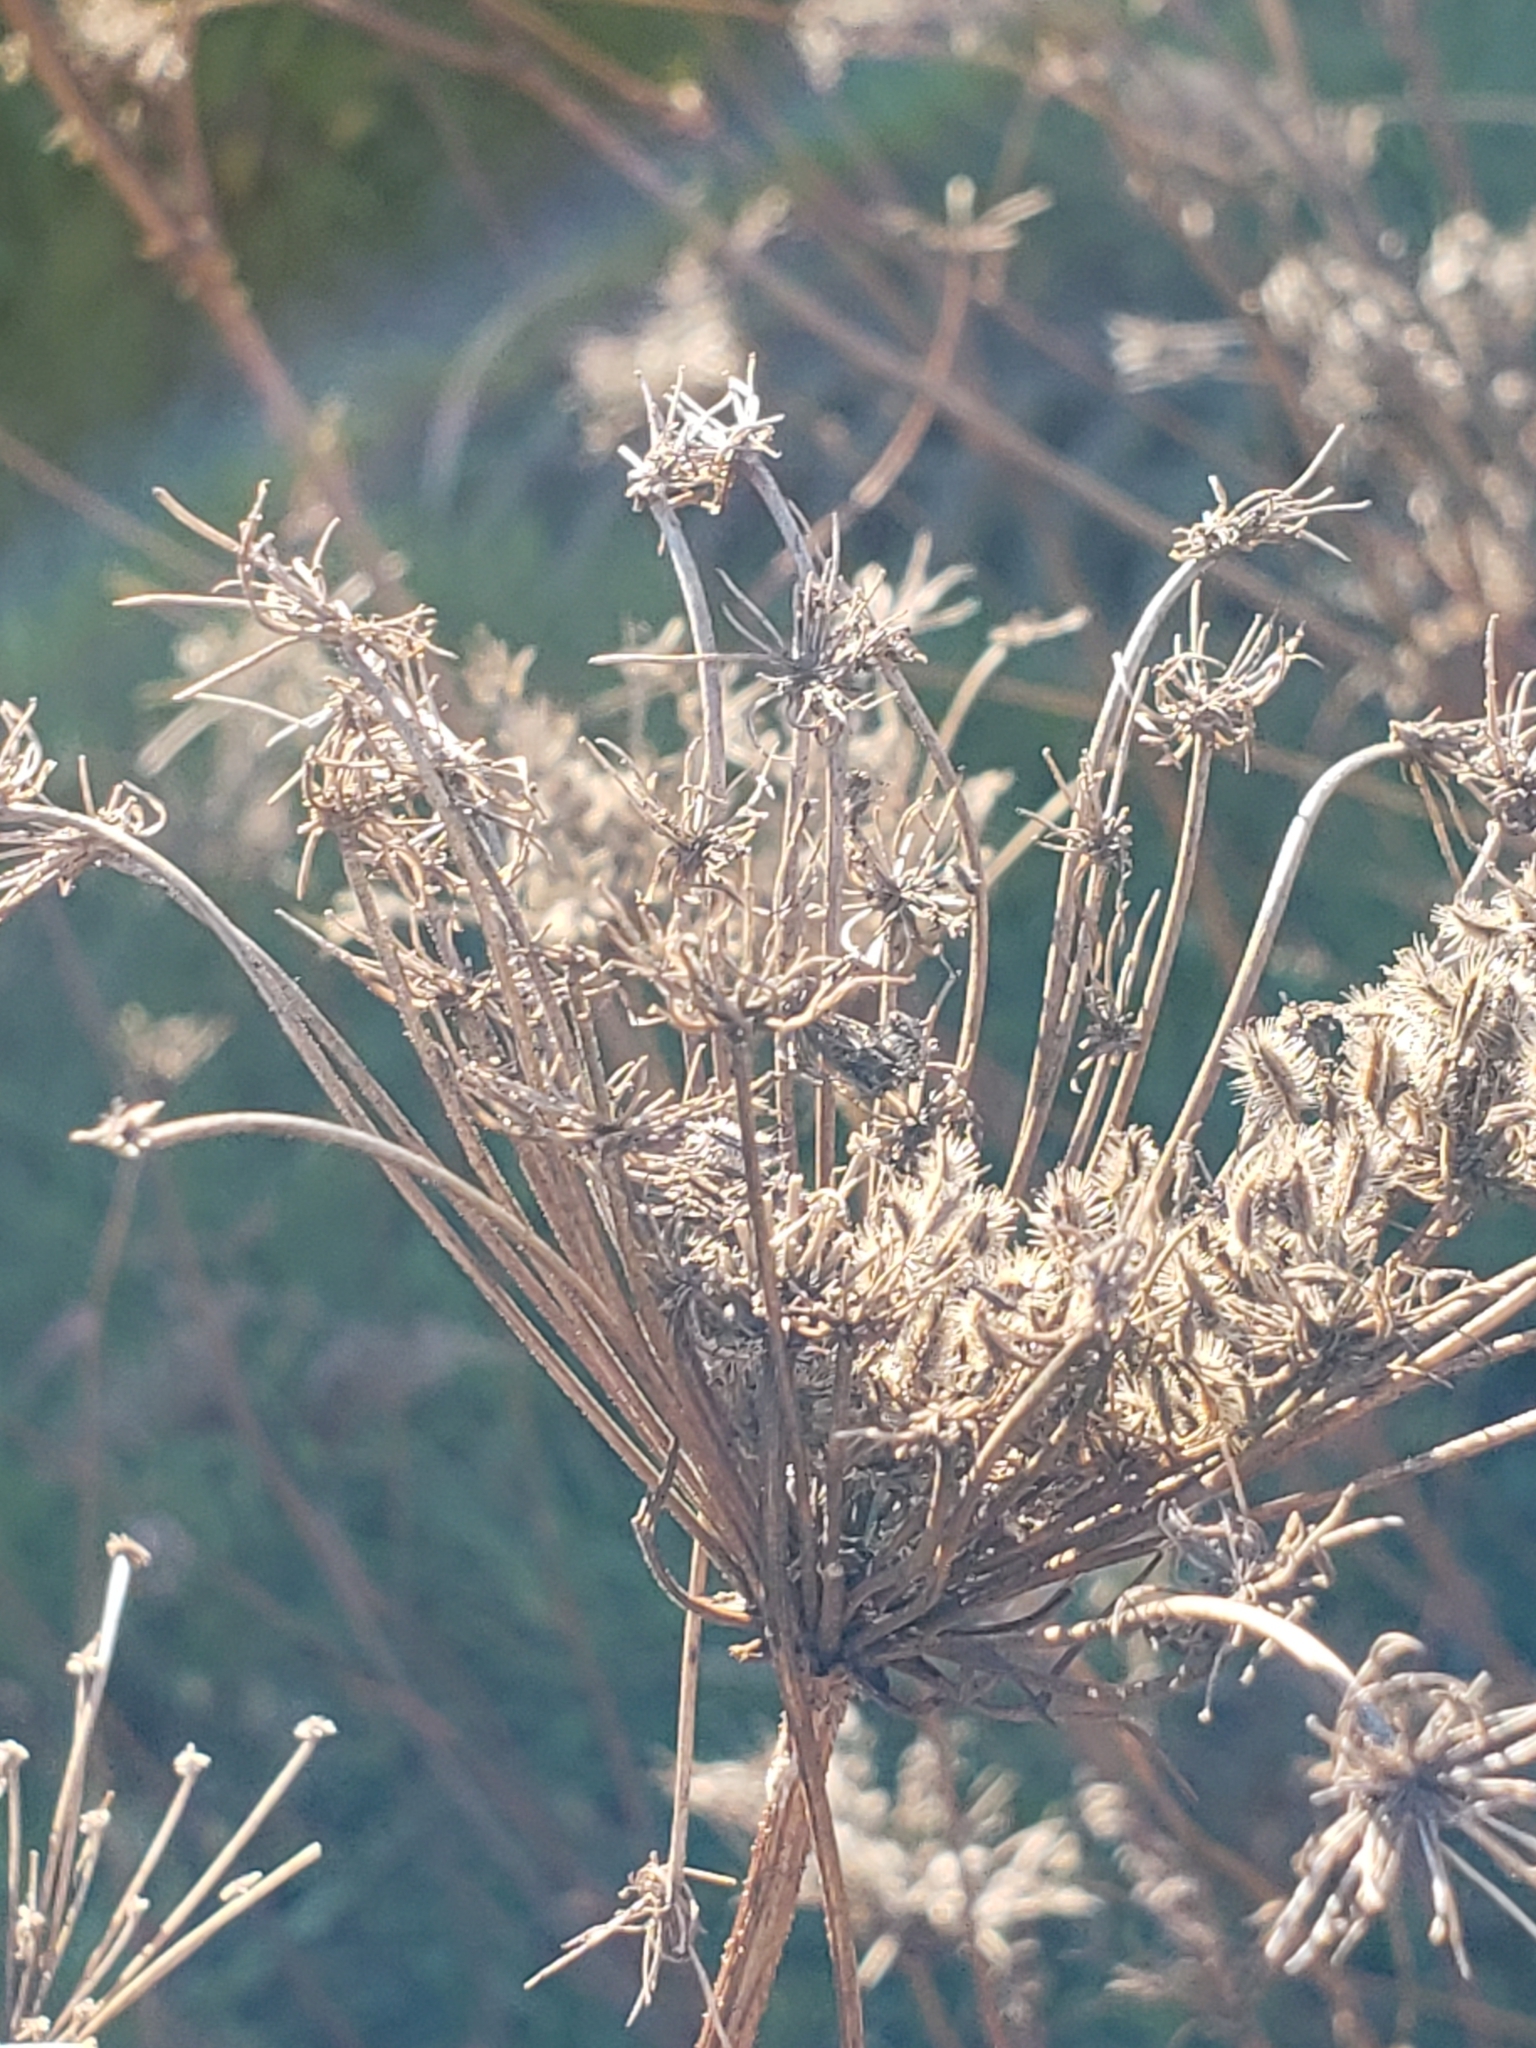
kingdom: Plantae
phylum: Tracheophyta
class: Magnoliopsida
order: Apiales
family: Apiaceae
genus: Daucus
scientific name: Daucus carota
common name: Wild carrot
